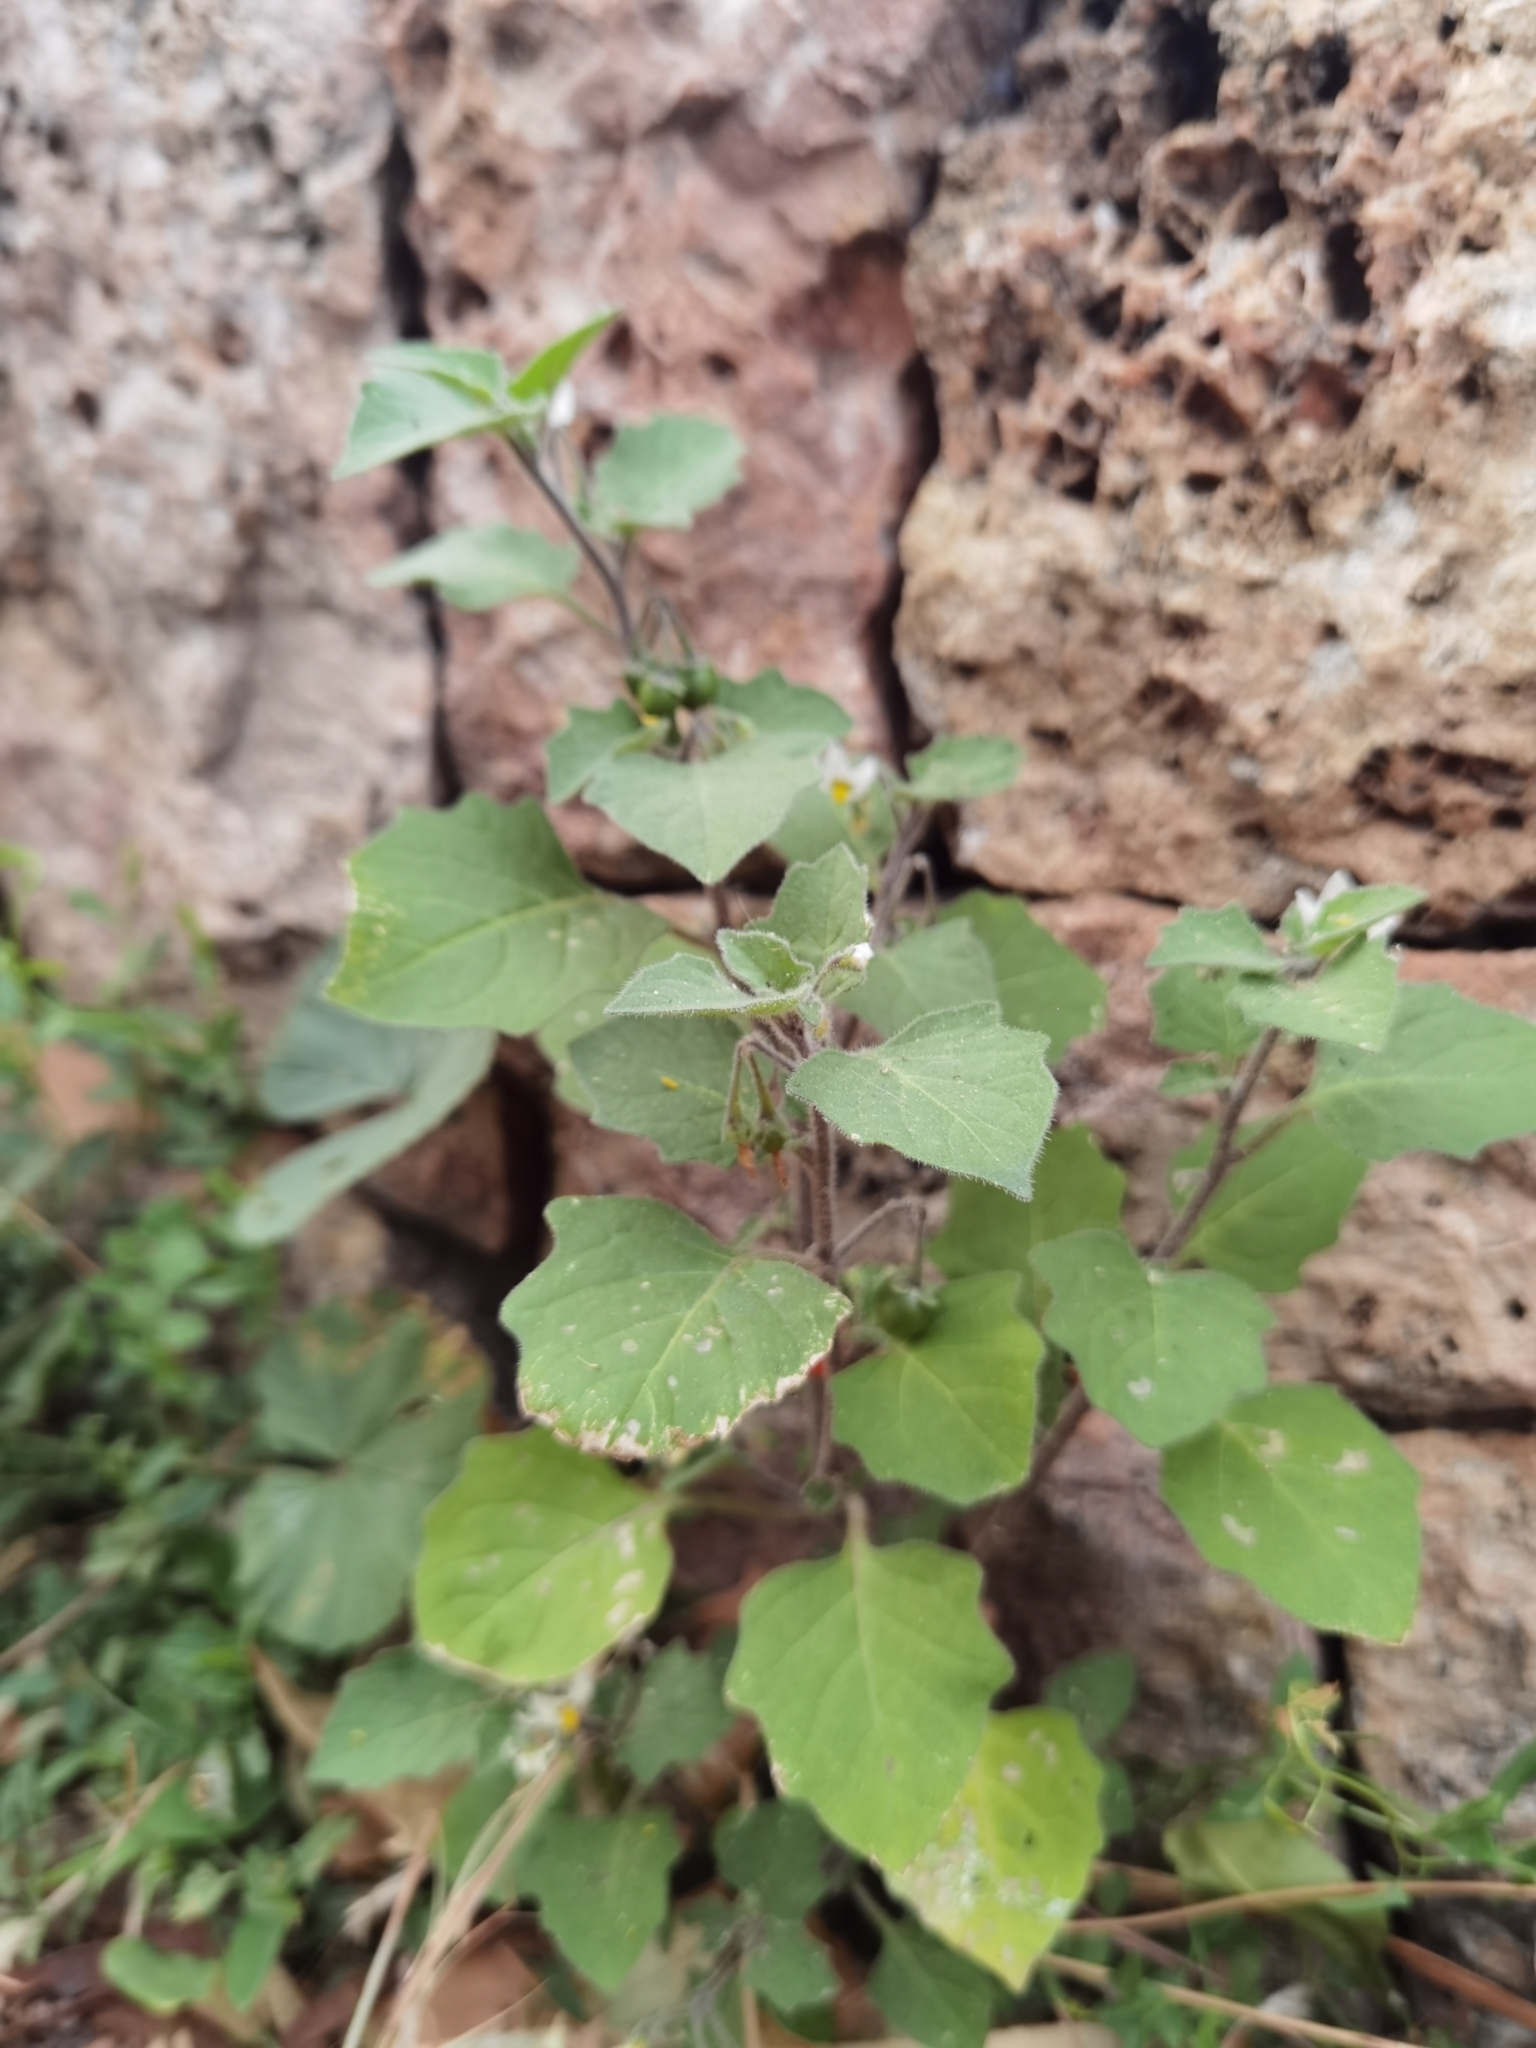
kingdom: Plantae
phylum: Tracheophyta
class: Magnoliopsida
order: Solanales
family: Solanaceae
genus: Solanum
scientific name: Solanum villosum
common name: Red nightshade
